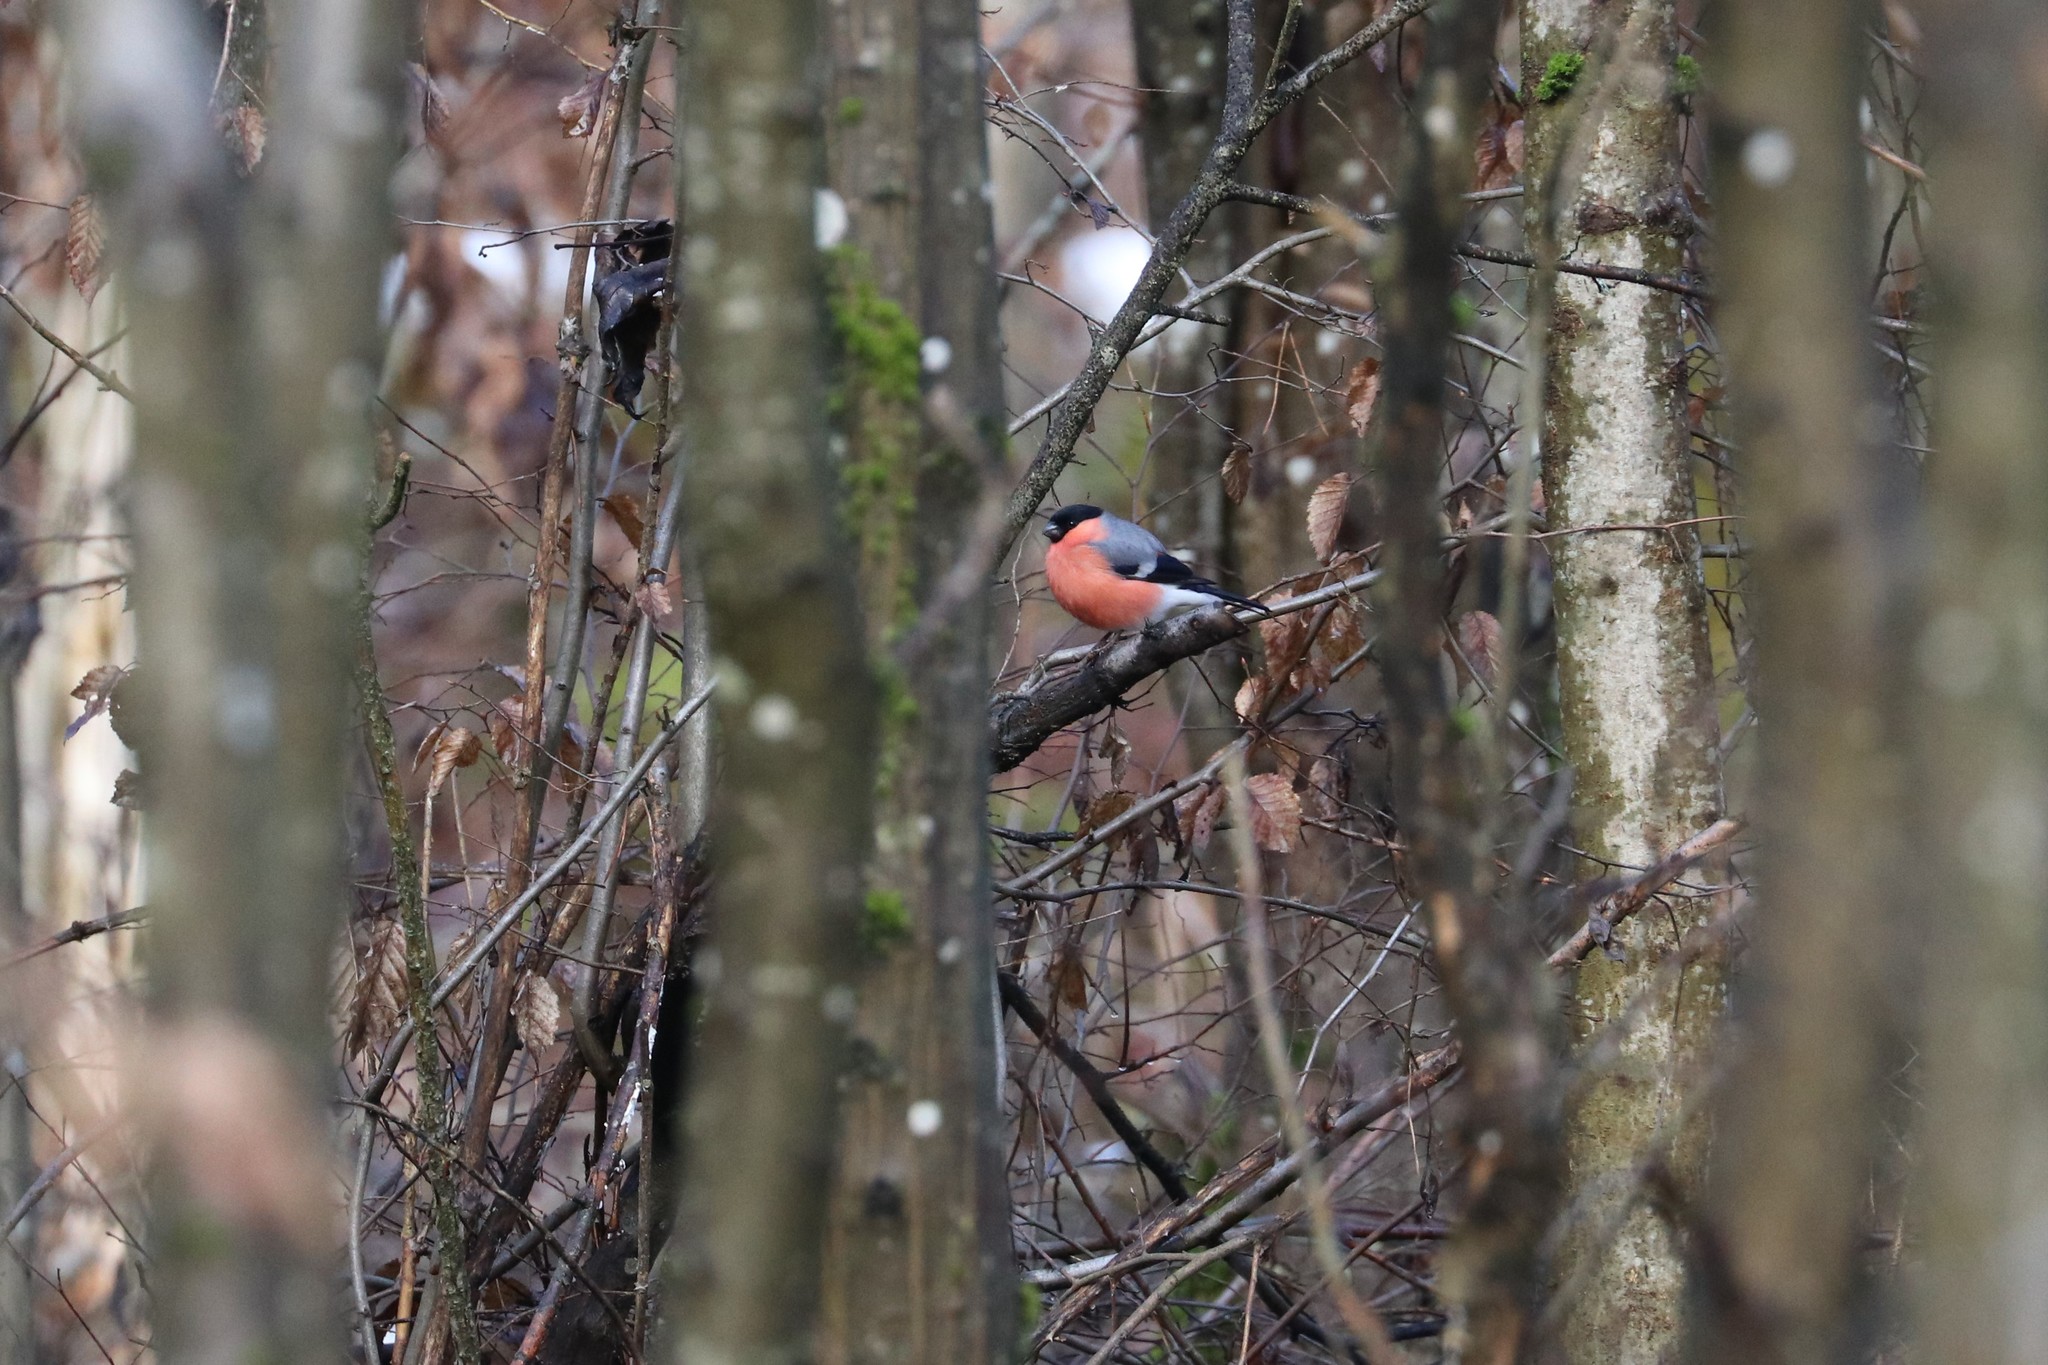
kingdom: Animalia
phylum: Chordata
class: Aves
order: Passeriformes
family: Fringillidae
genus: Pyrrhula
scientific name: Pyrrhula pyrrhula
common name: Eurasian bullfinch
